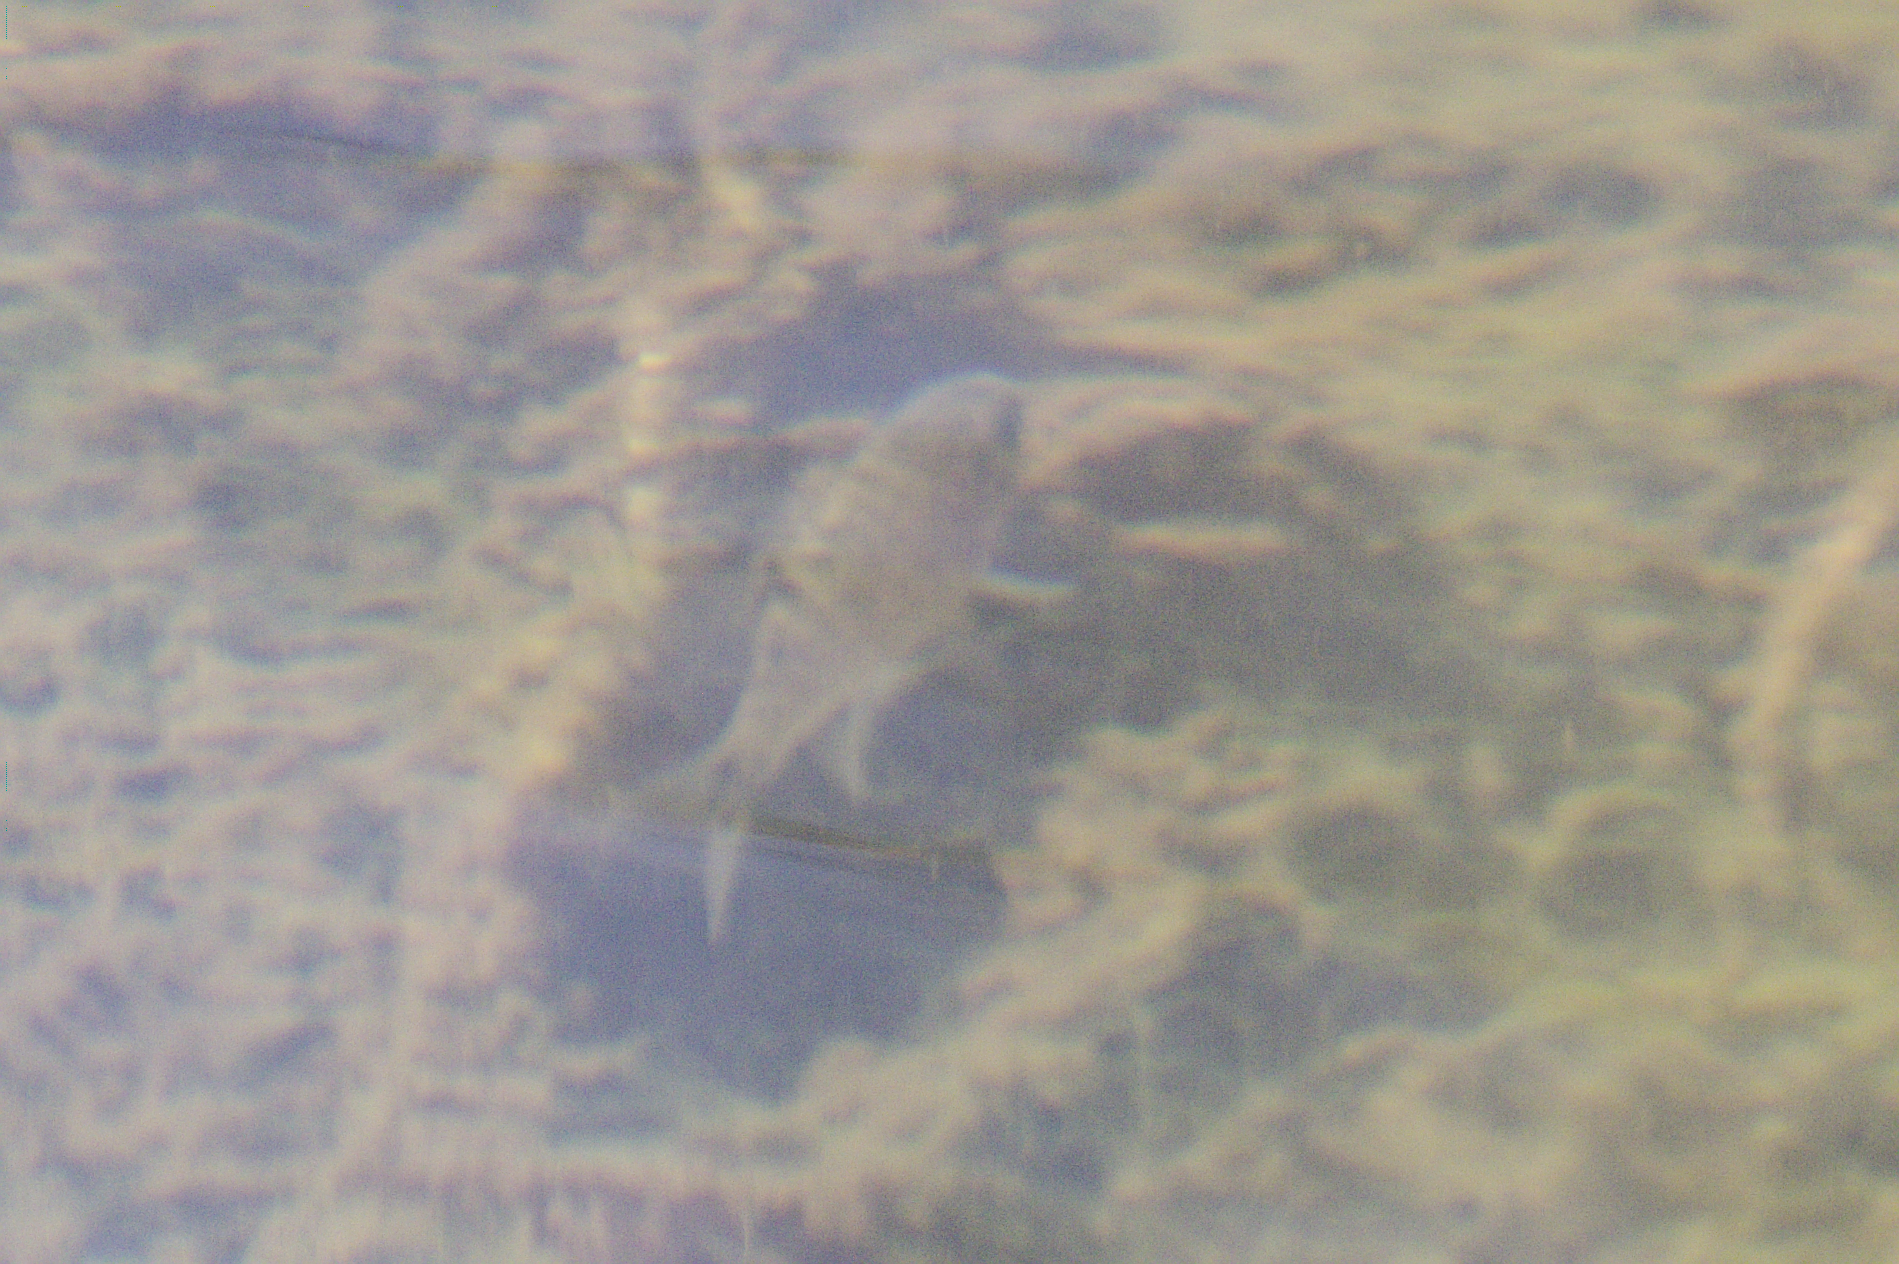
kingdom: Animalia
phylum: Chordata
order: Cypriniformes
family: Cyprinidae
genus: Semotilus
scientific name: Semotilus atromaculatus
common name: Creek chub
